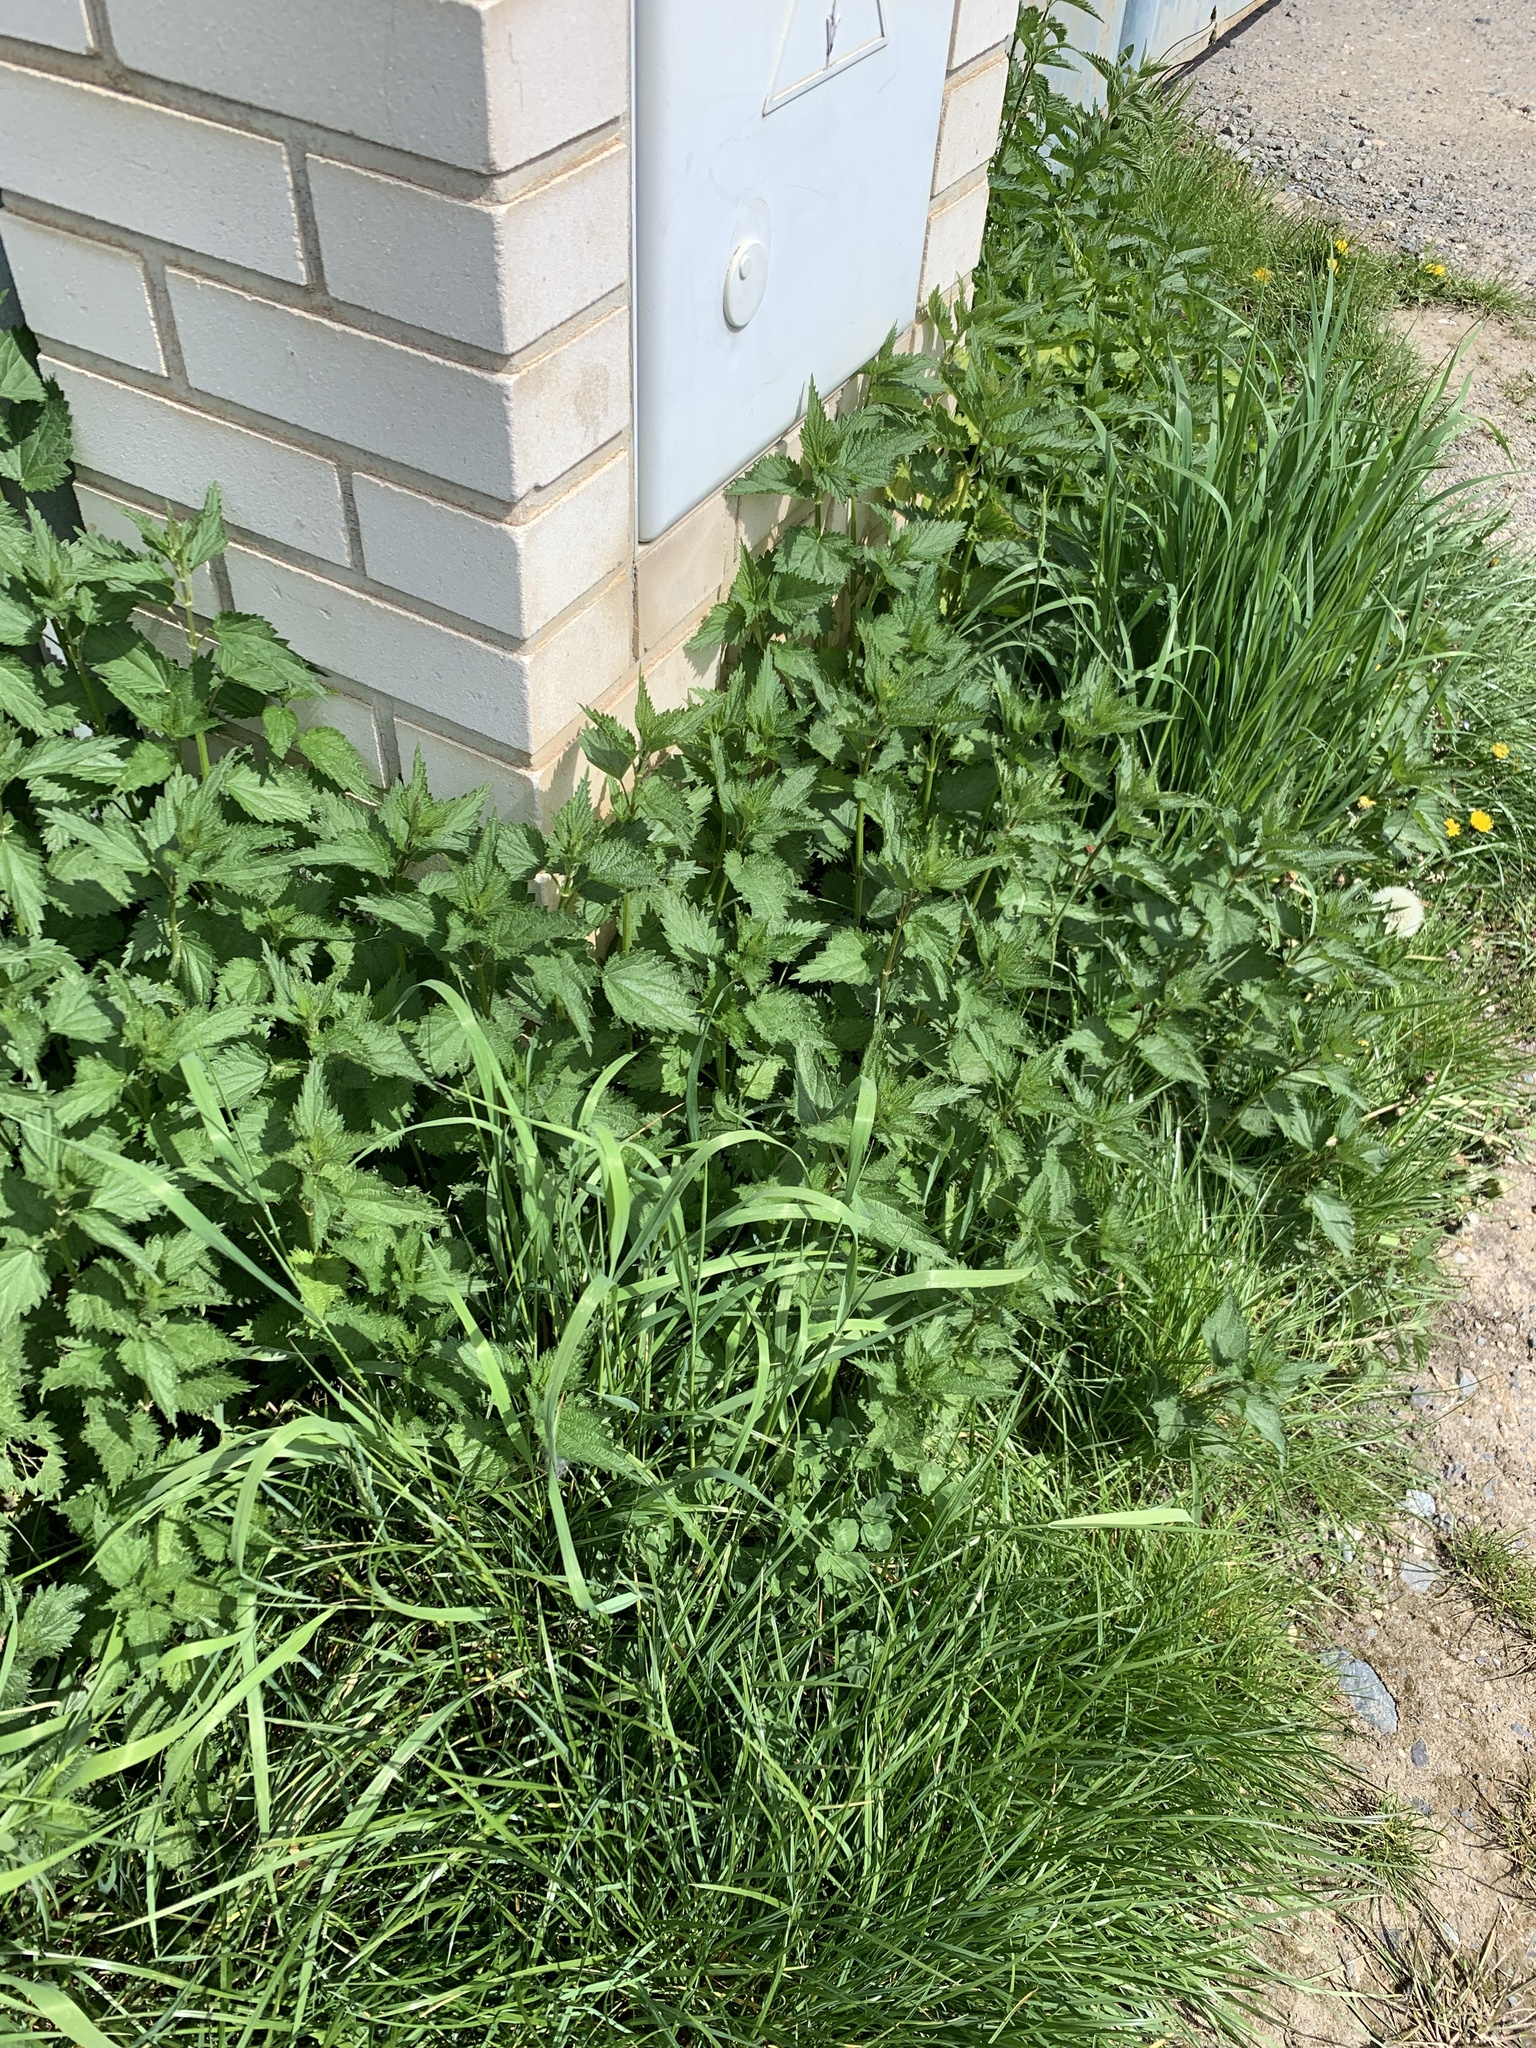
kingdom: Plantae
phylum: Tracheophyta
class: Magnoliopsida
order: Rosales
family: Urticaceae
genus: Urtica
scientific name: Urtica dioica
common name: Common nettle
